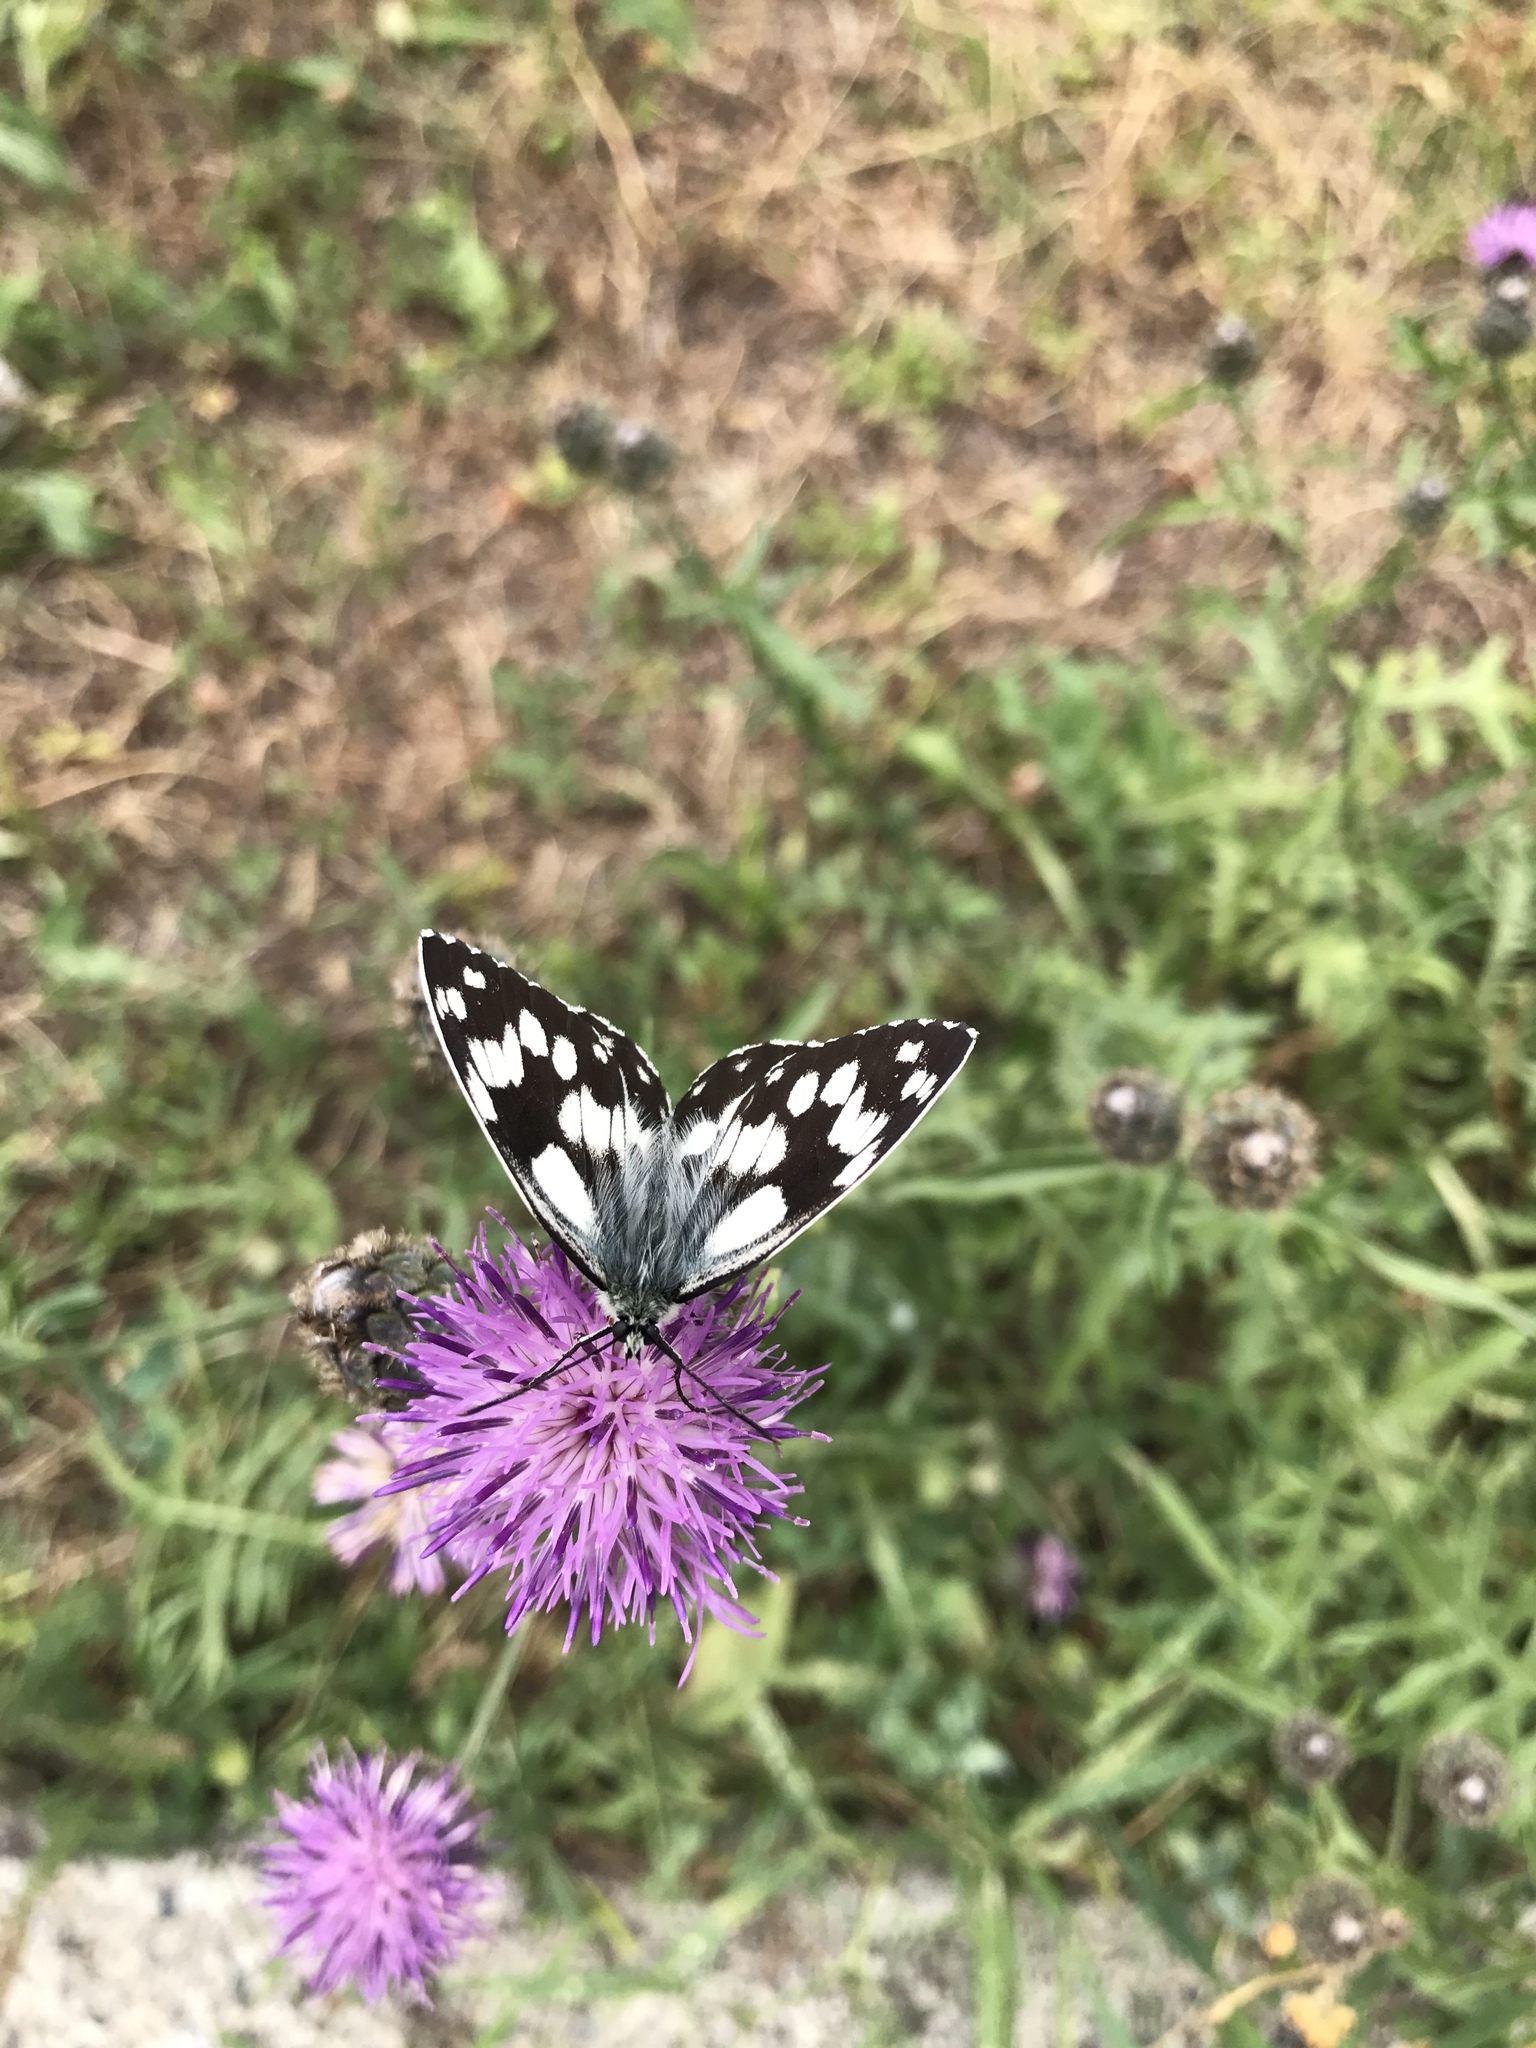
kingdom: Animalia
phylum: Arthropoda
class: Insecta
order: Lepidoptera
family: Nymphalidae
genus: Melanargia
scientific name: Melanargia galathea
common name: Marbled white
